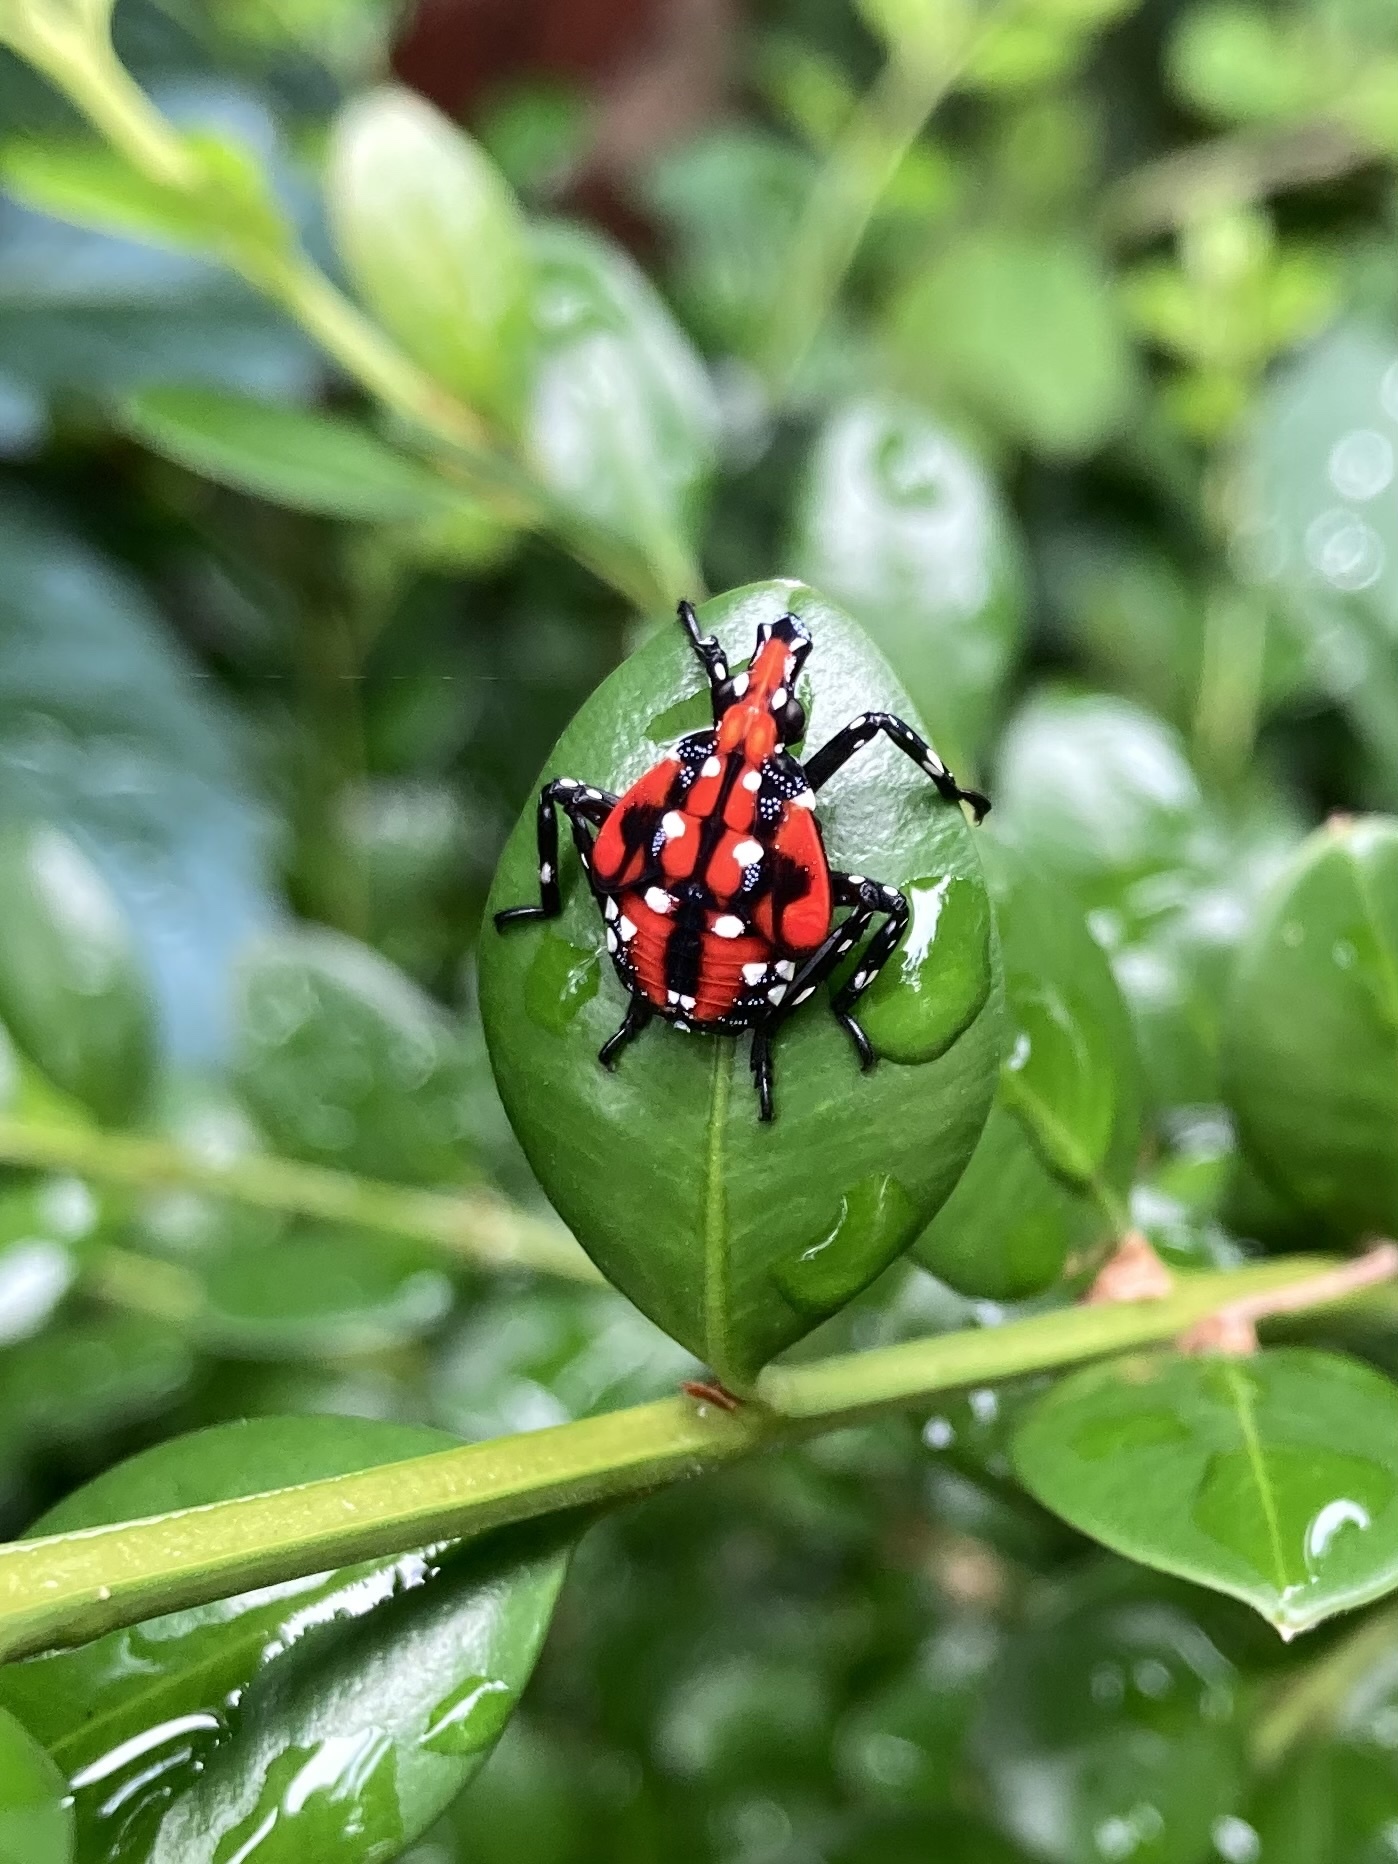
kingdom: Animalia
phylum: Arthropoda
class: Insecta
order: Hemiptera
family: Fulgoridae
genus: Lycorma
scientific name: Lycorma delicatula
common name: Spotted lanternfly
